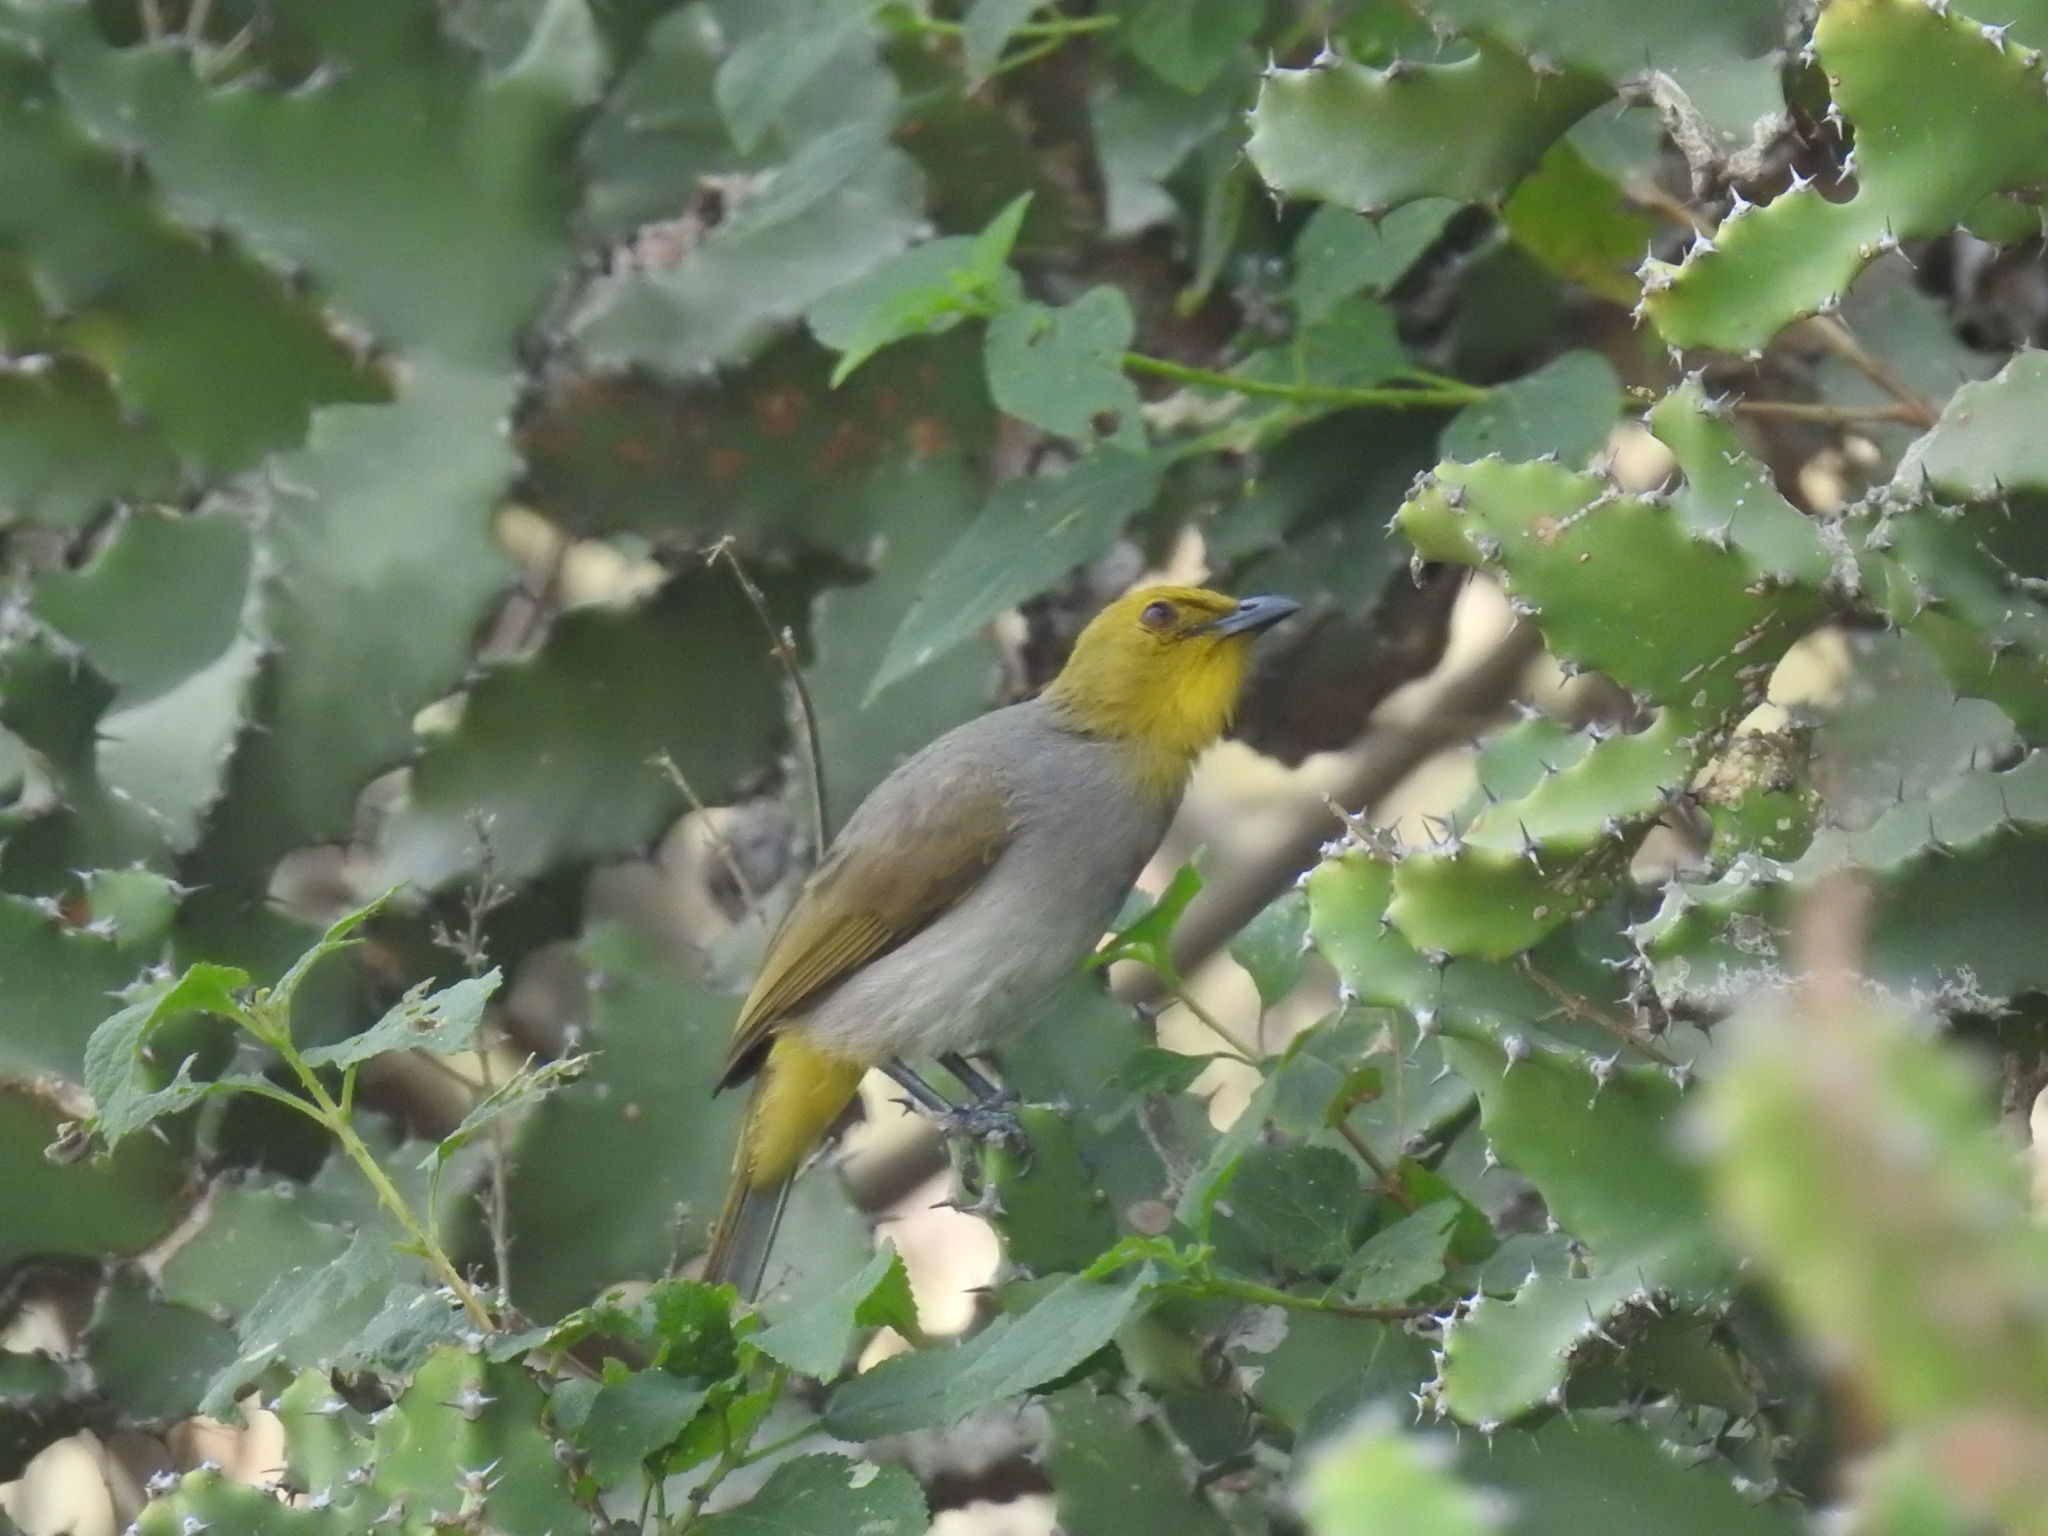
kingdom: Animalia
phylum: Chordata
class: Aves
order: Passeriformes
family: Pycnonotidae
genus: Pycnonotus
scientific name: Pycnonotus xantholaemus
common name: Yellow-throated bulbul
